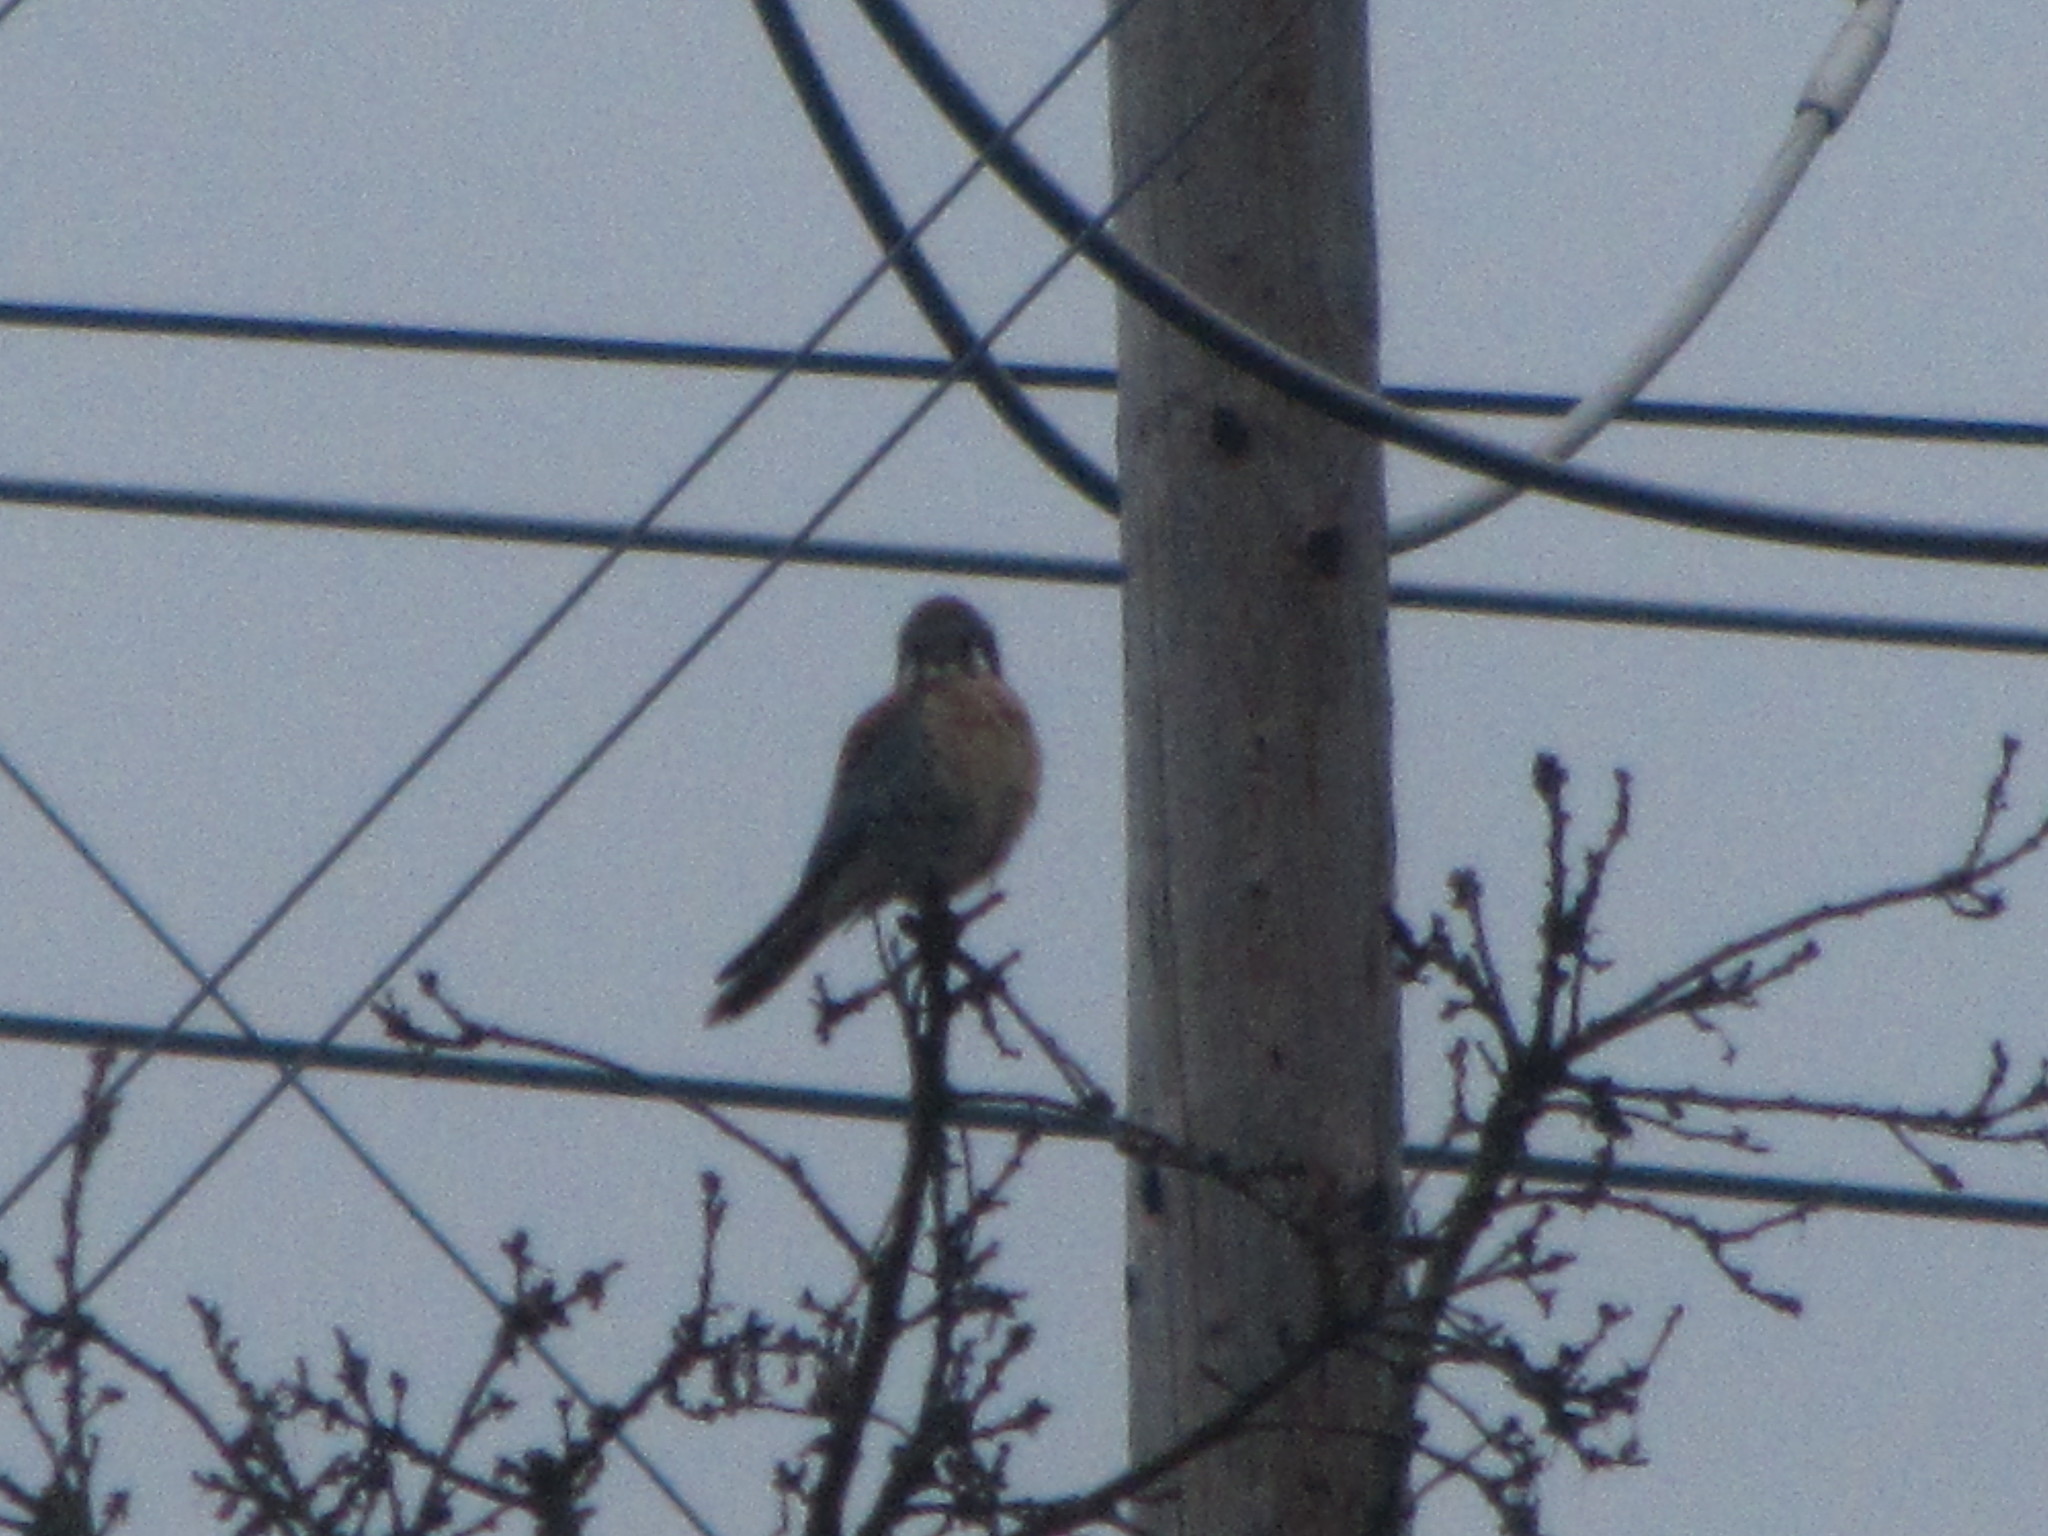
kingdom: Animalia
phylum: Chordata
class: Aves
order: Falconiformes
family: Falconidae
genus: Falco
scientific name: Falco sparverius
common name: American kestrel
